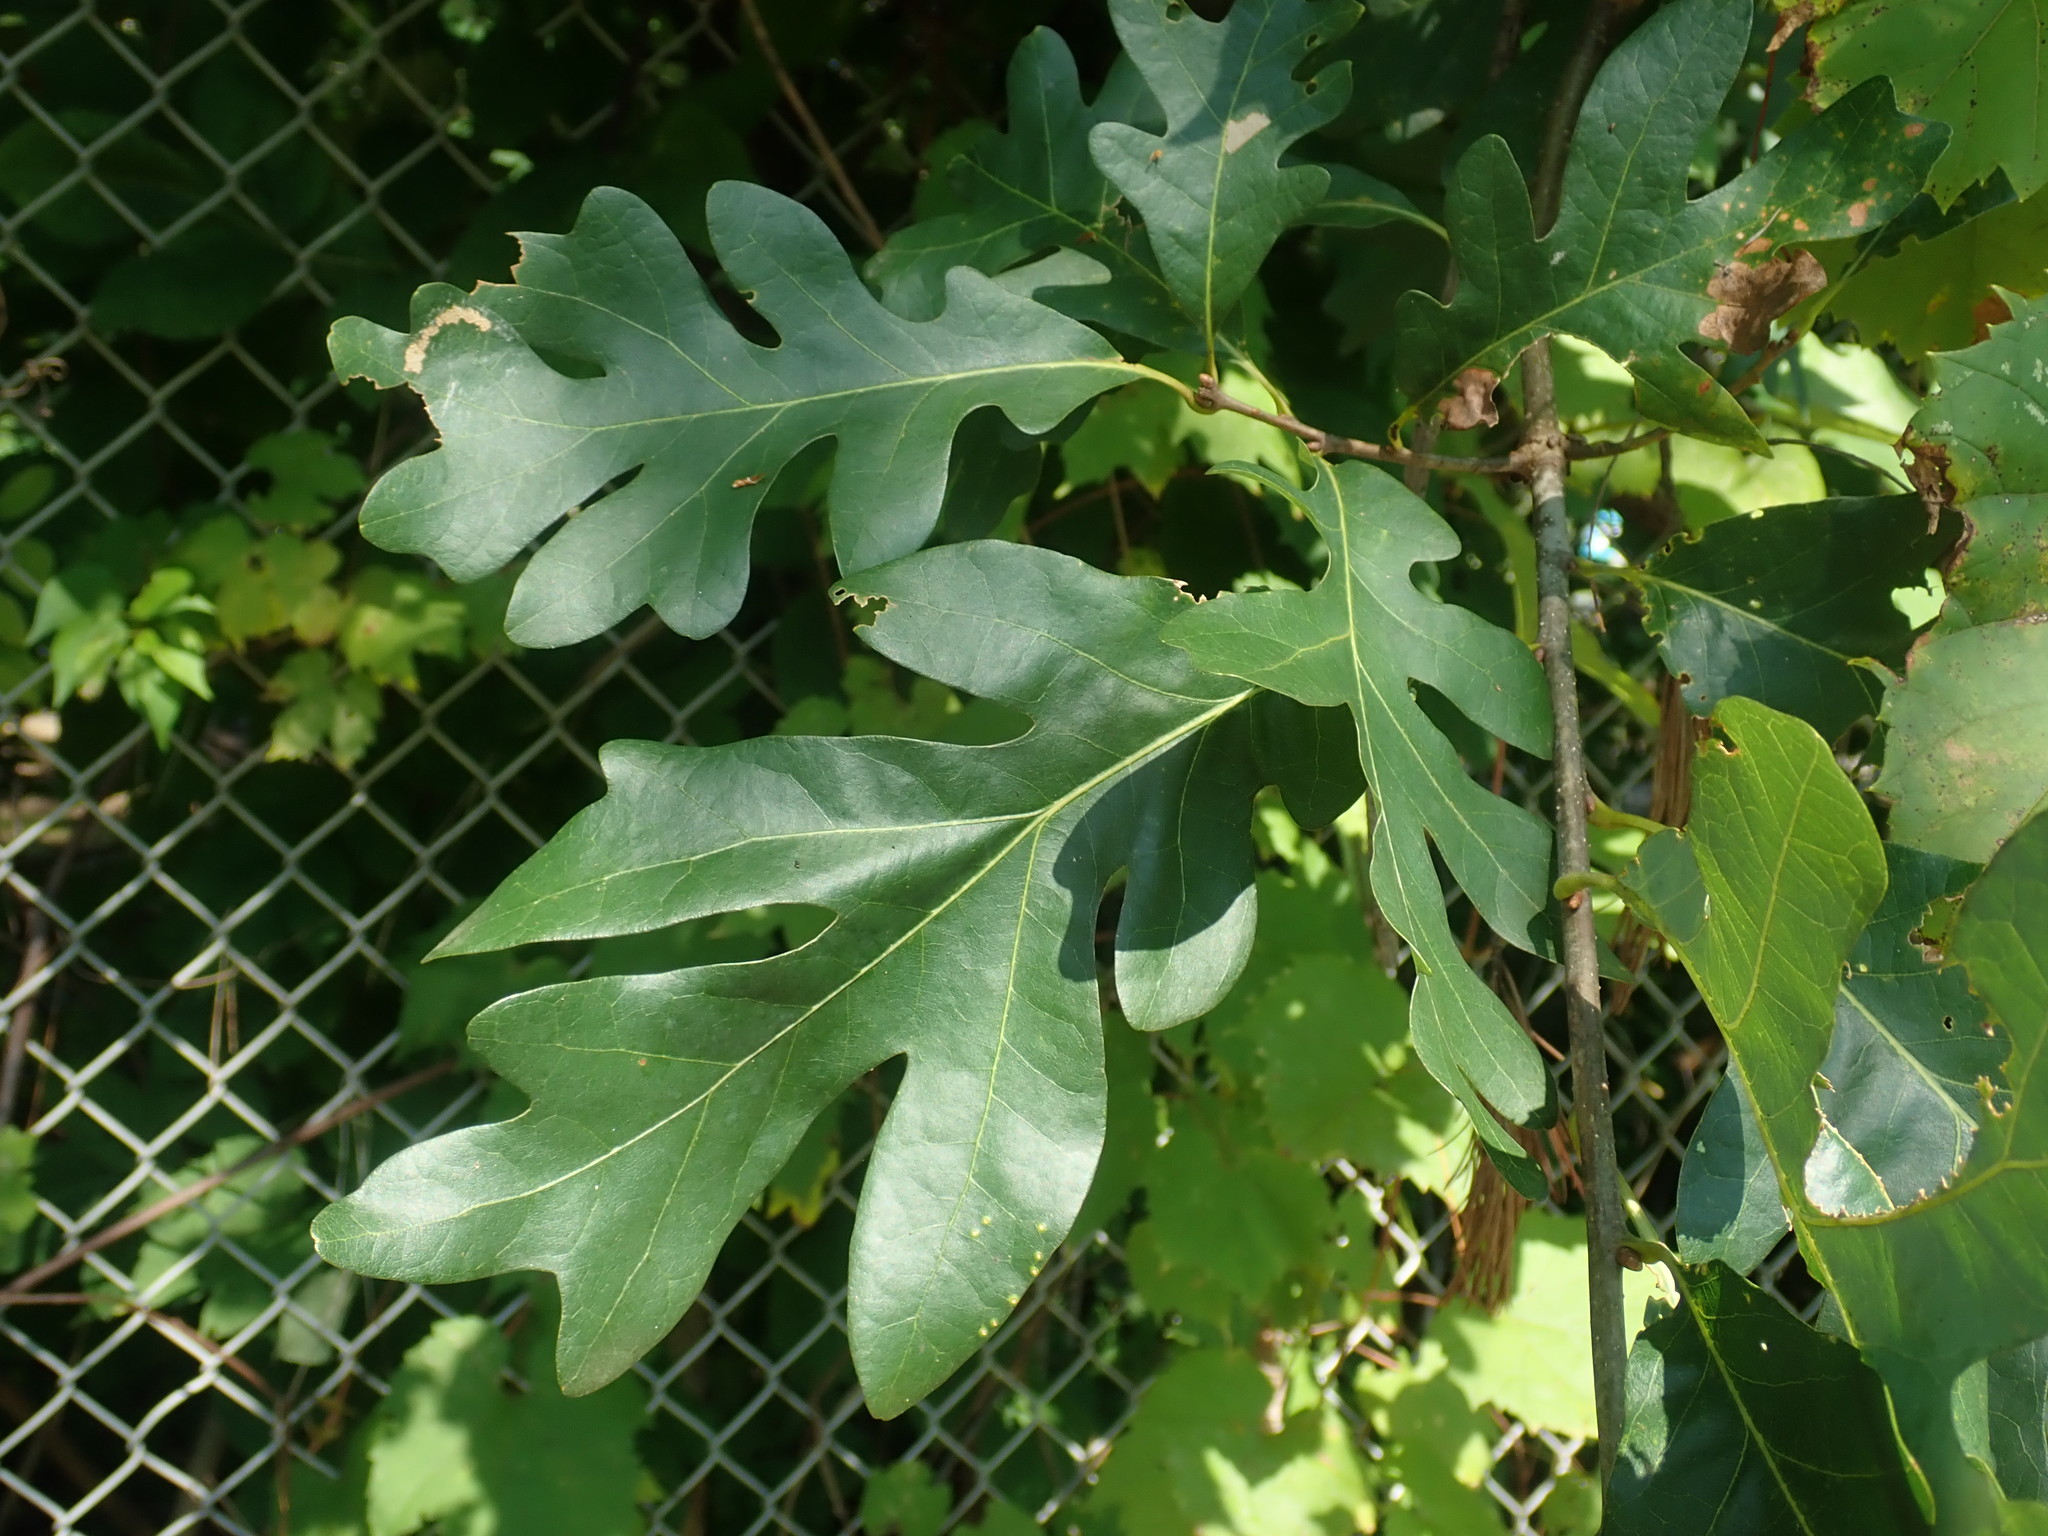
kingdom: Plantae
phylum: Tracheophyta
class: Magnoliopsida
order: Fagales
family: Fagaceae
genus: Quercus
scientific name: Quercus alba
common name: White oak
